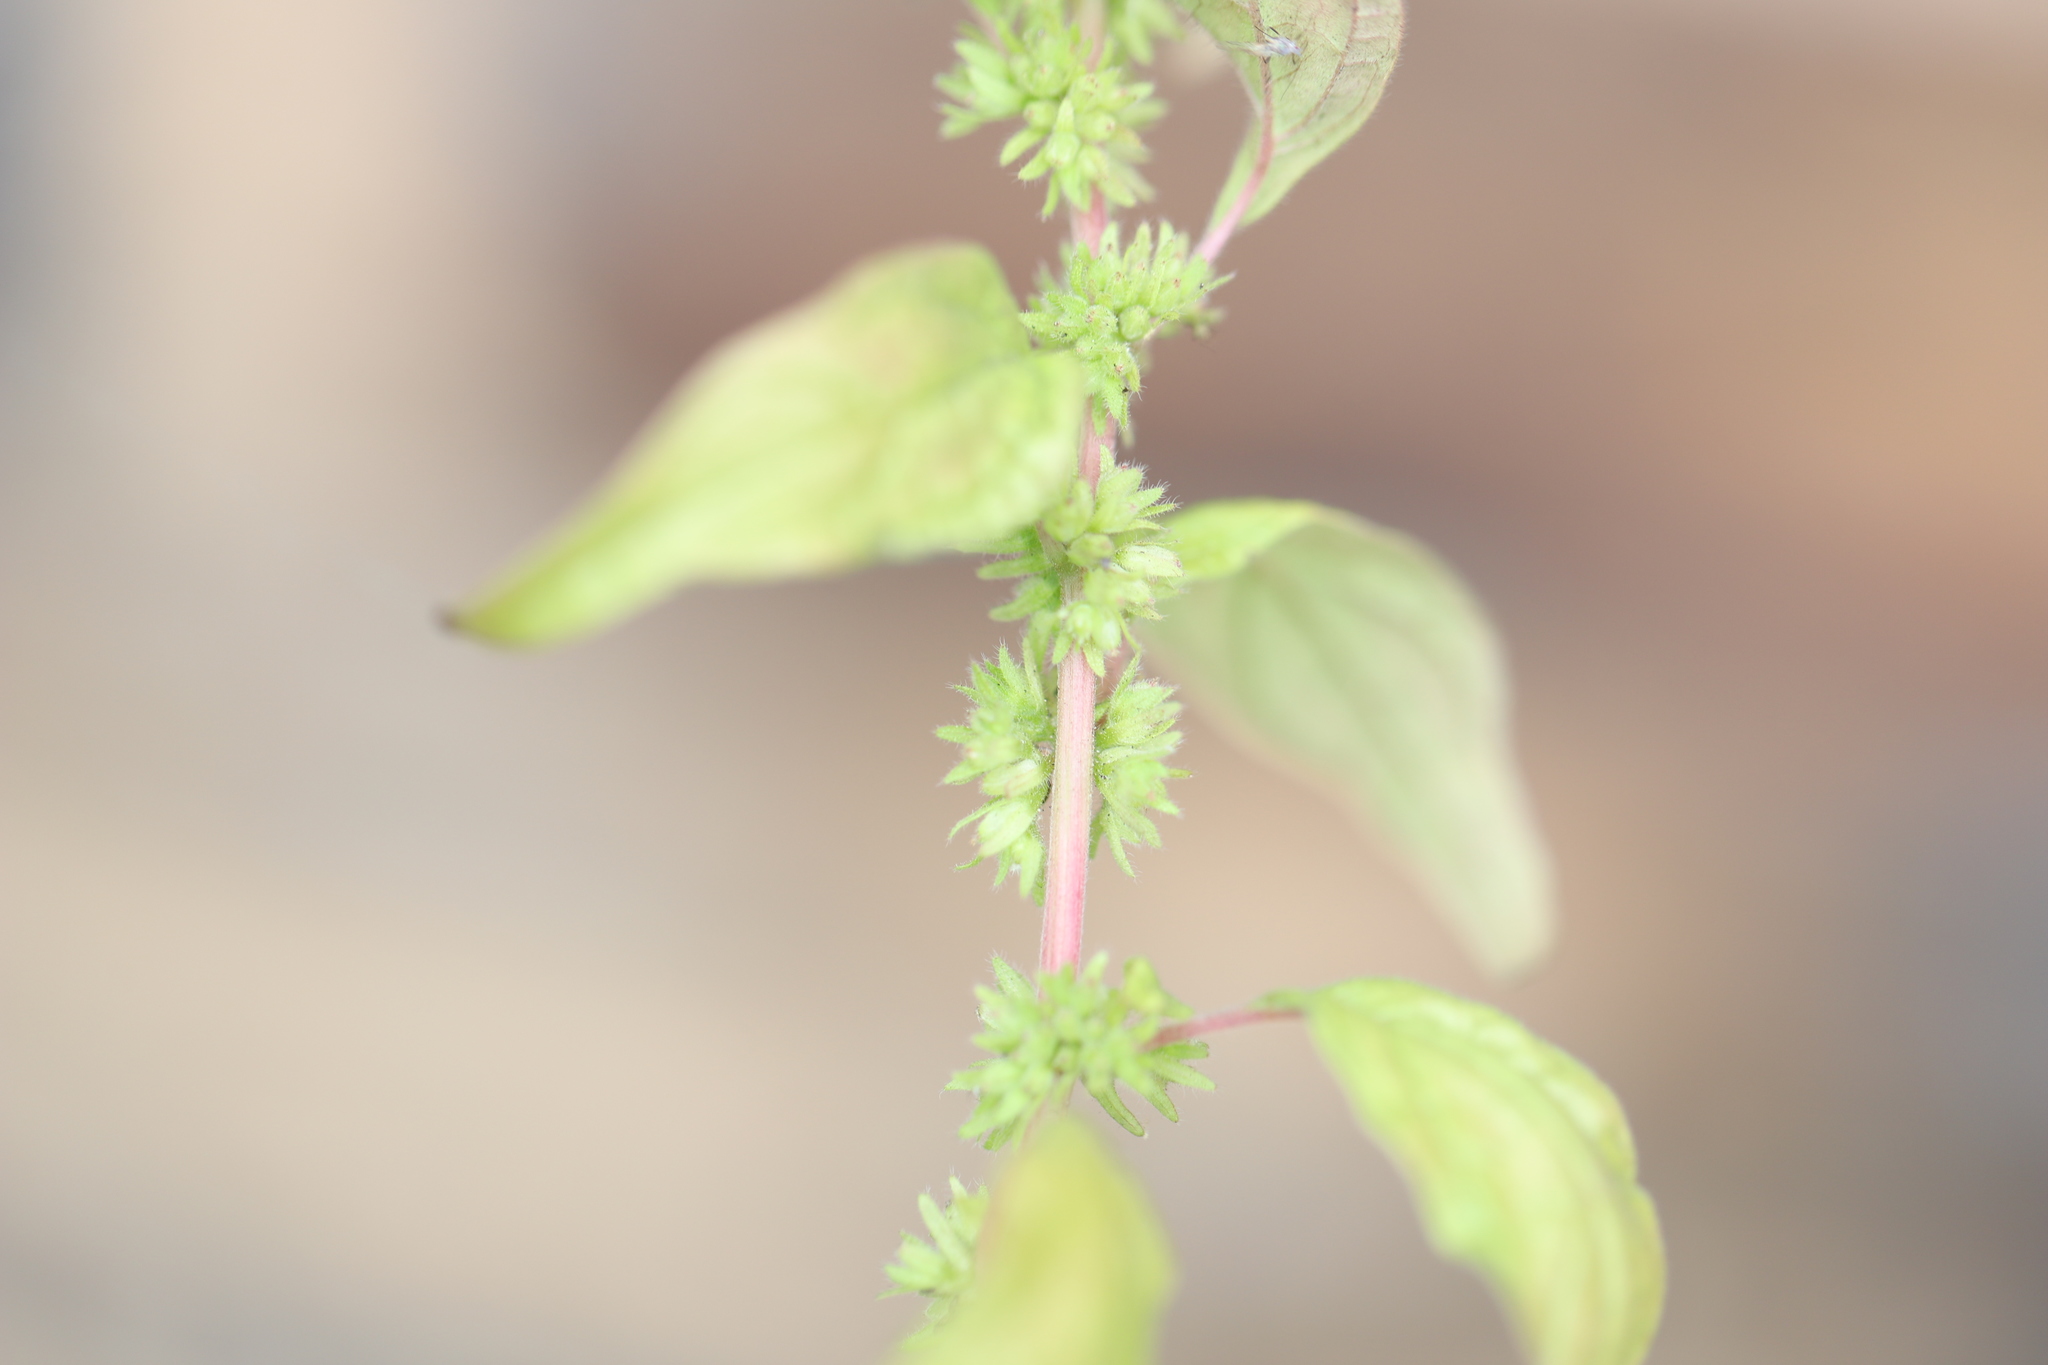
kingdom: Plantae
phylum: Tracheophyta
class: Magnoliopsida
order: Rosales
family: Urticaceae
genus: Parietaria
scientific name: Parietaria pensylvanica
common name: Pennsylvania pellitory
